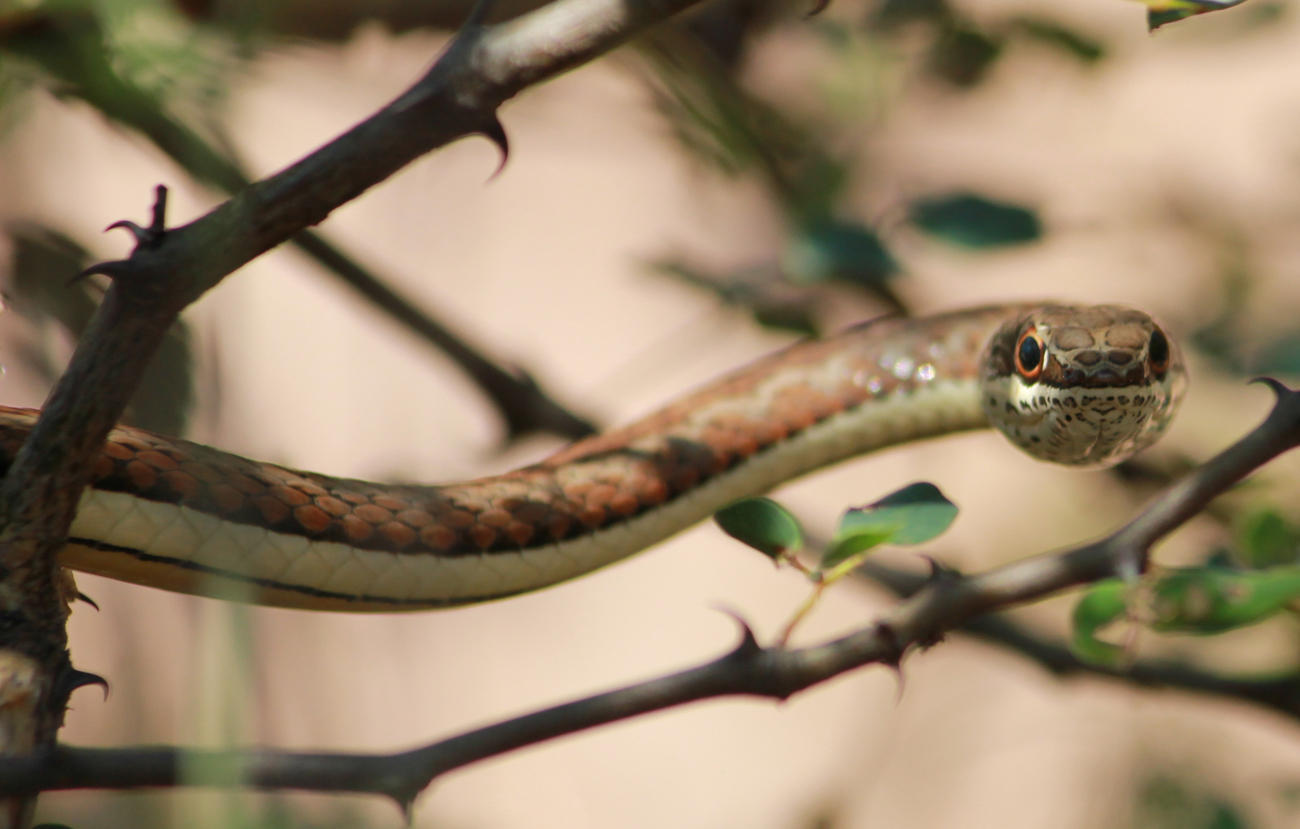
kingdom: Animalia
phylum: Chordata
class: Squamata
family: Psammophiidae
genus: Psammophis
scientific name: Psammophis subtaeniatus
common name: Stripe-bellied sand snake
